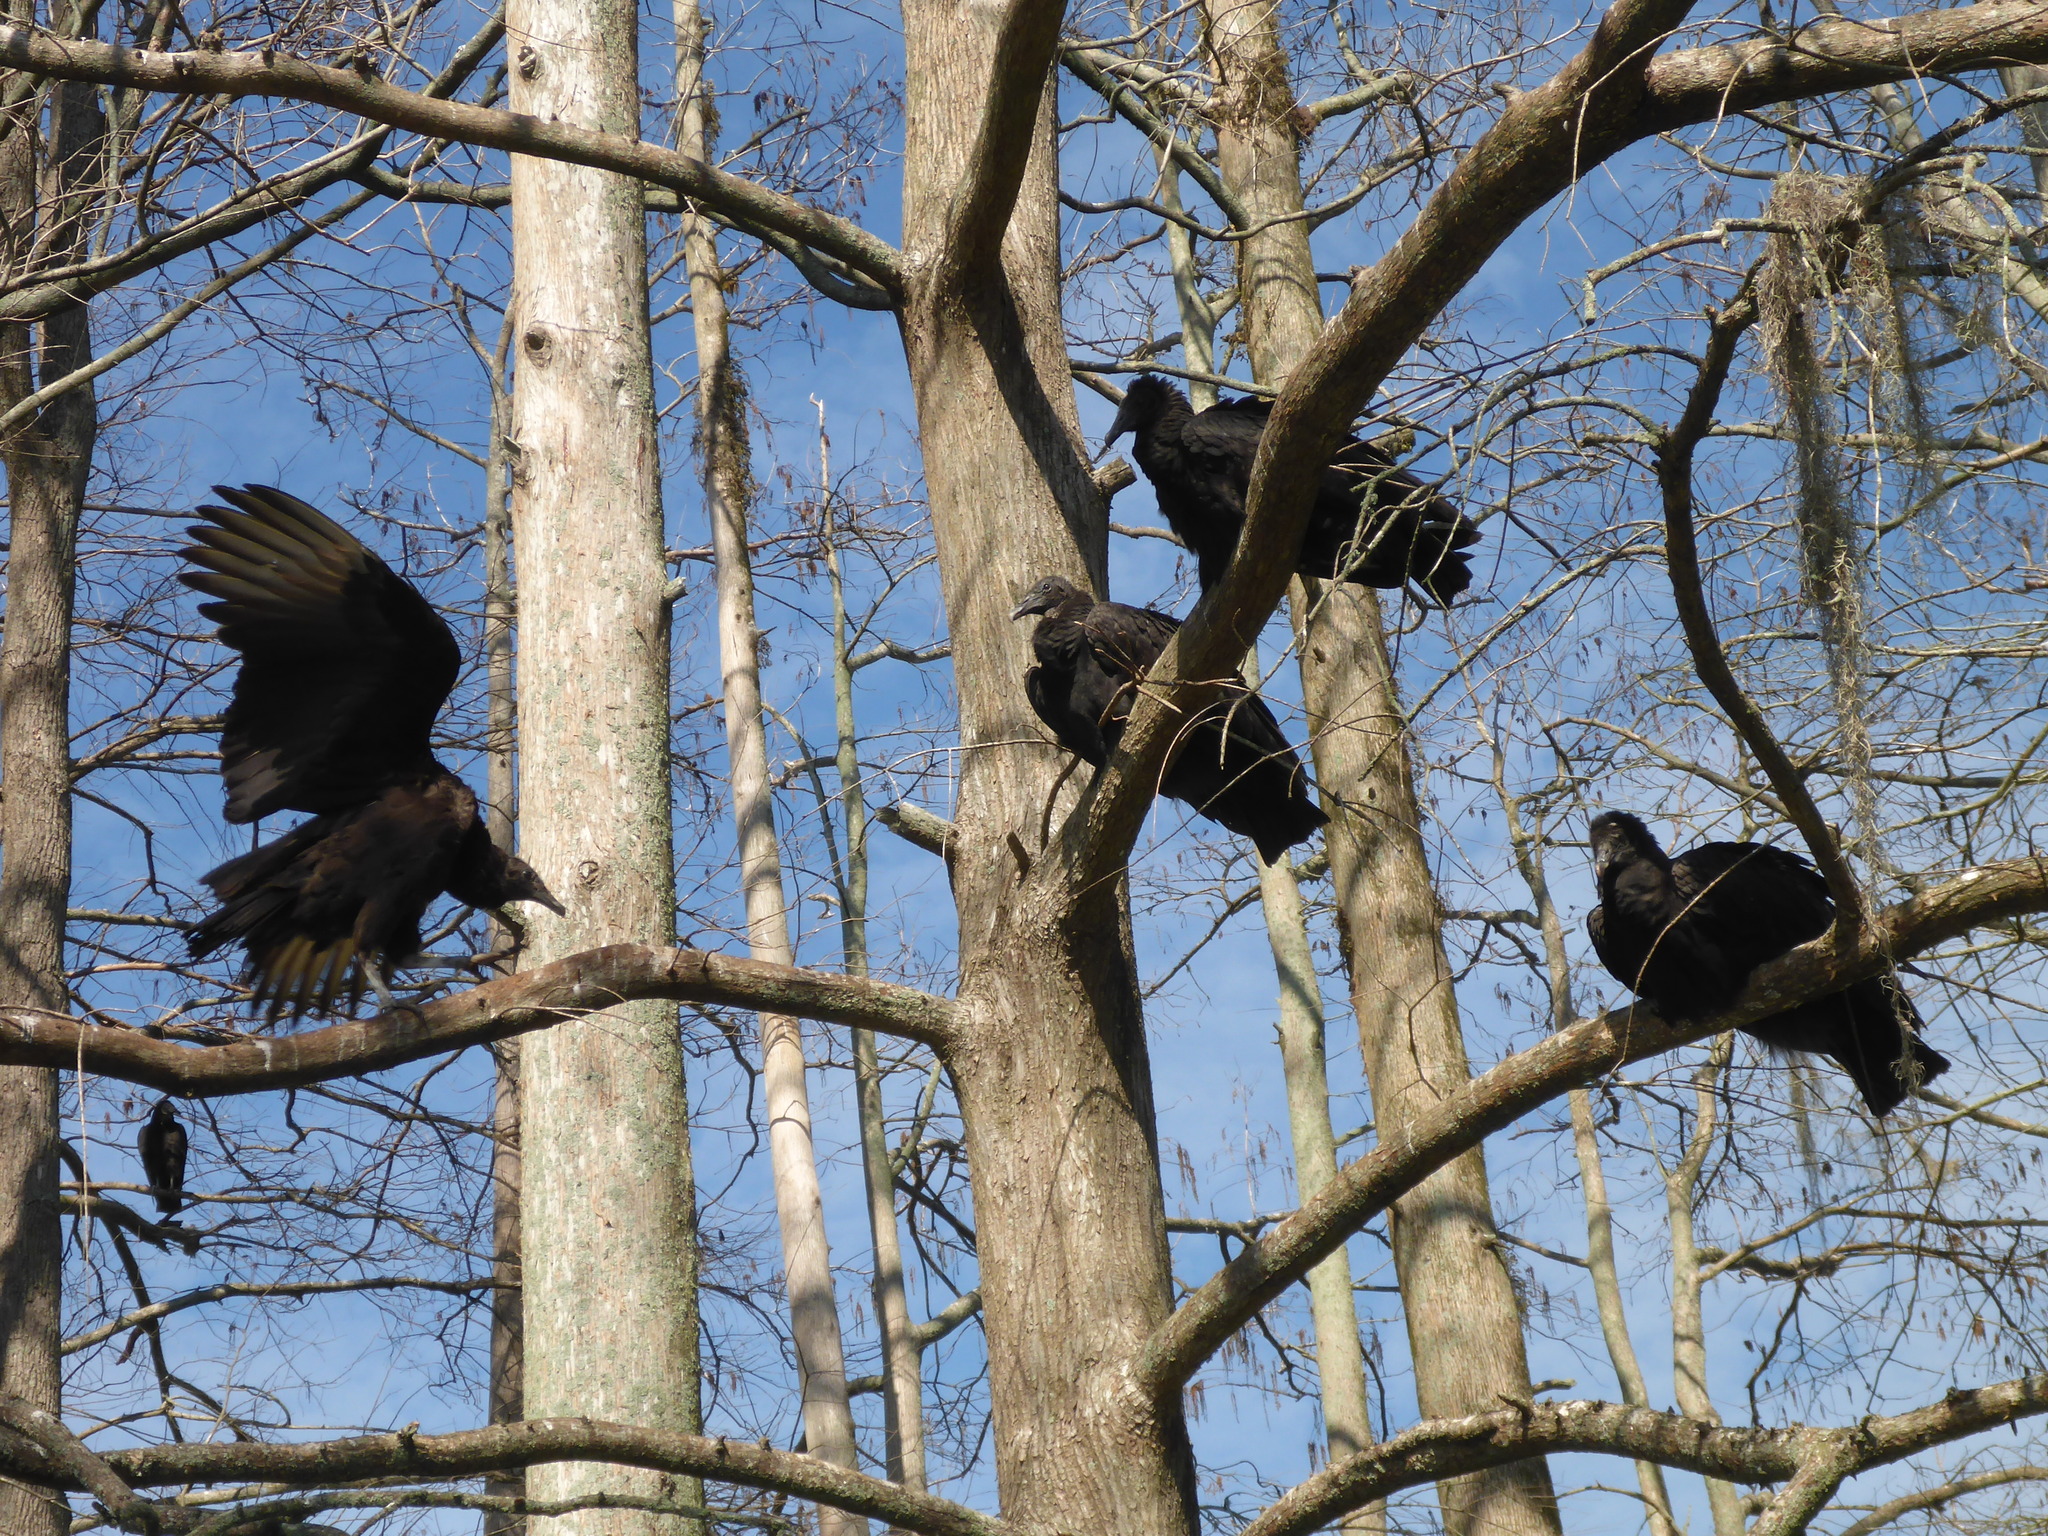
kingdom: Animalia
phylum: Chordata
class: Aves
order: Accipitriformes
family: Cathartidae
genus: Coragyps
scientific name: Coragyps atratus
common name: Black vulture
